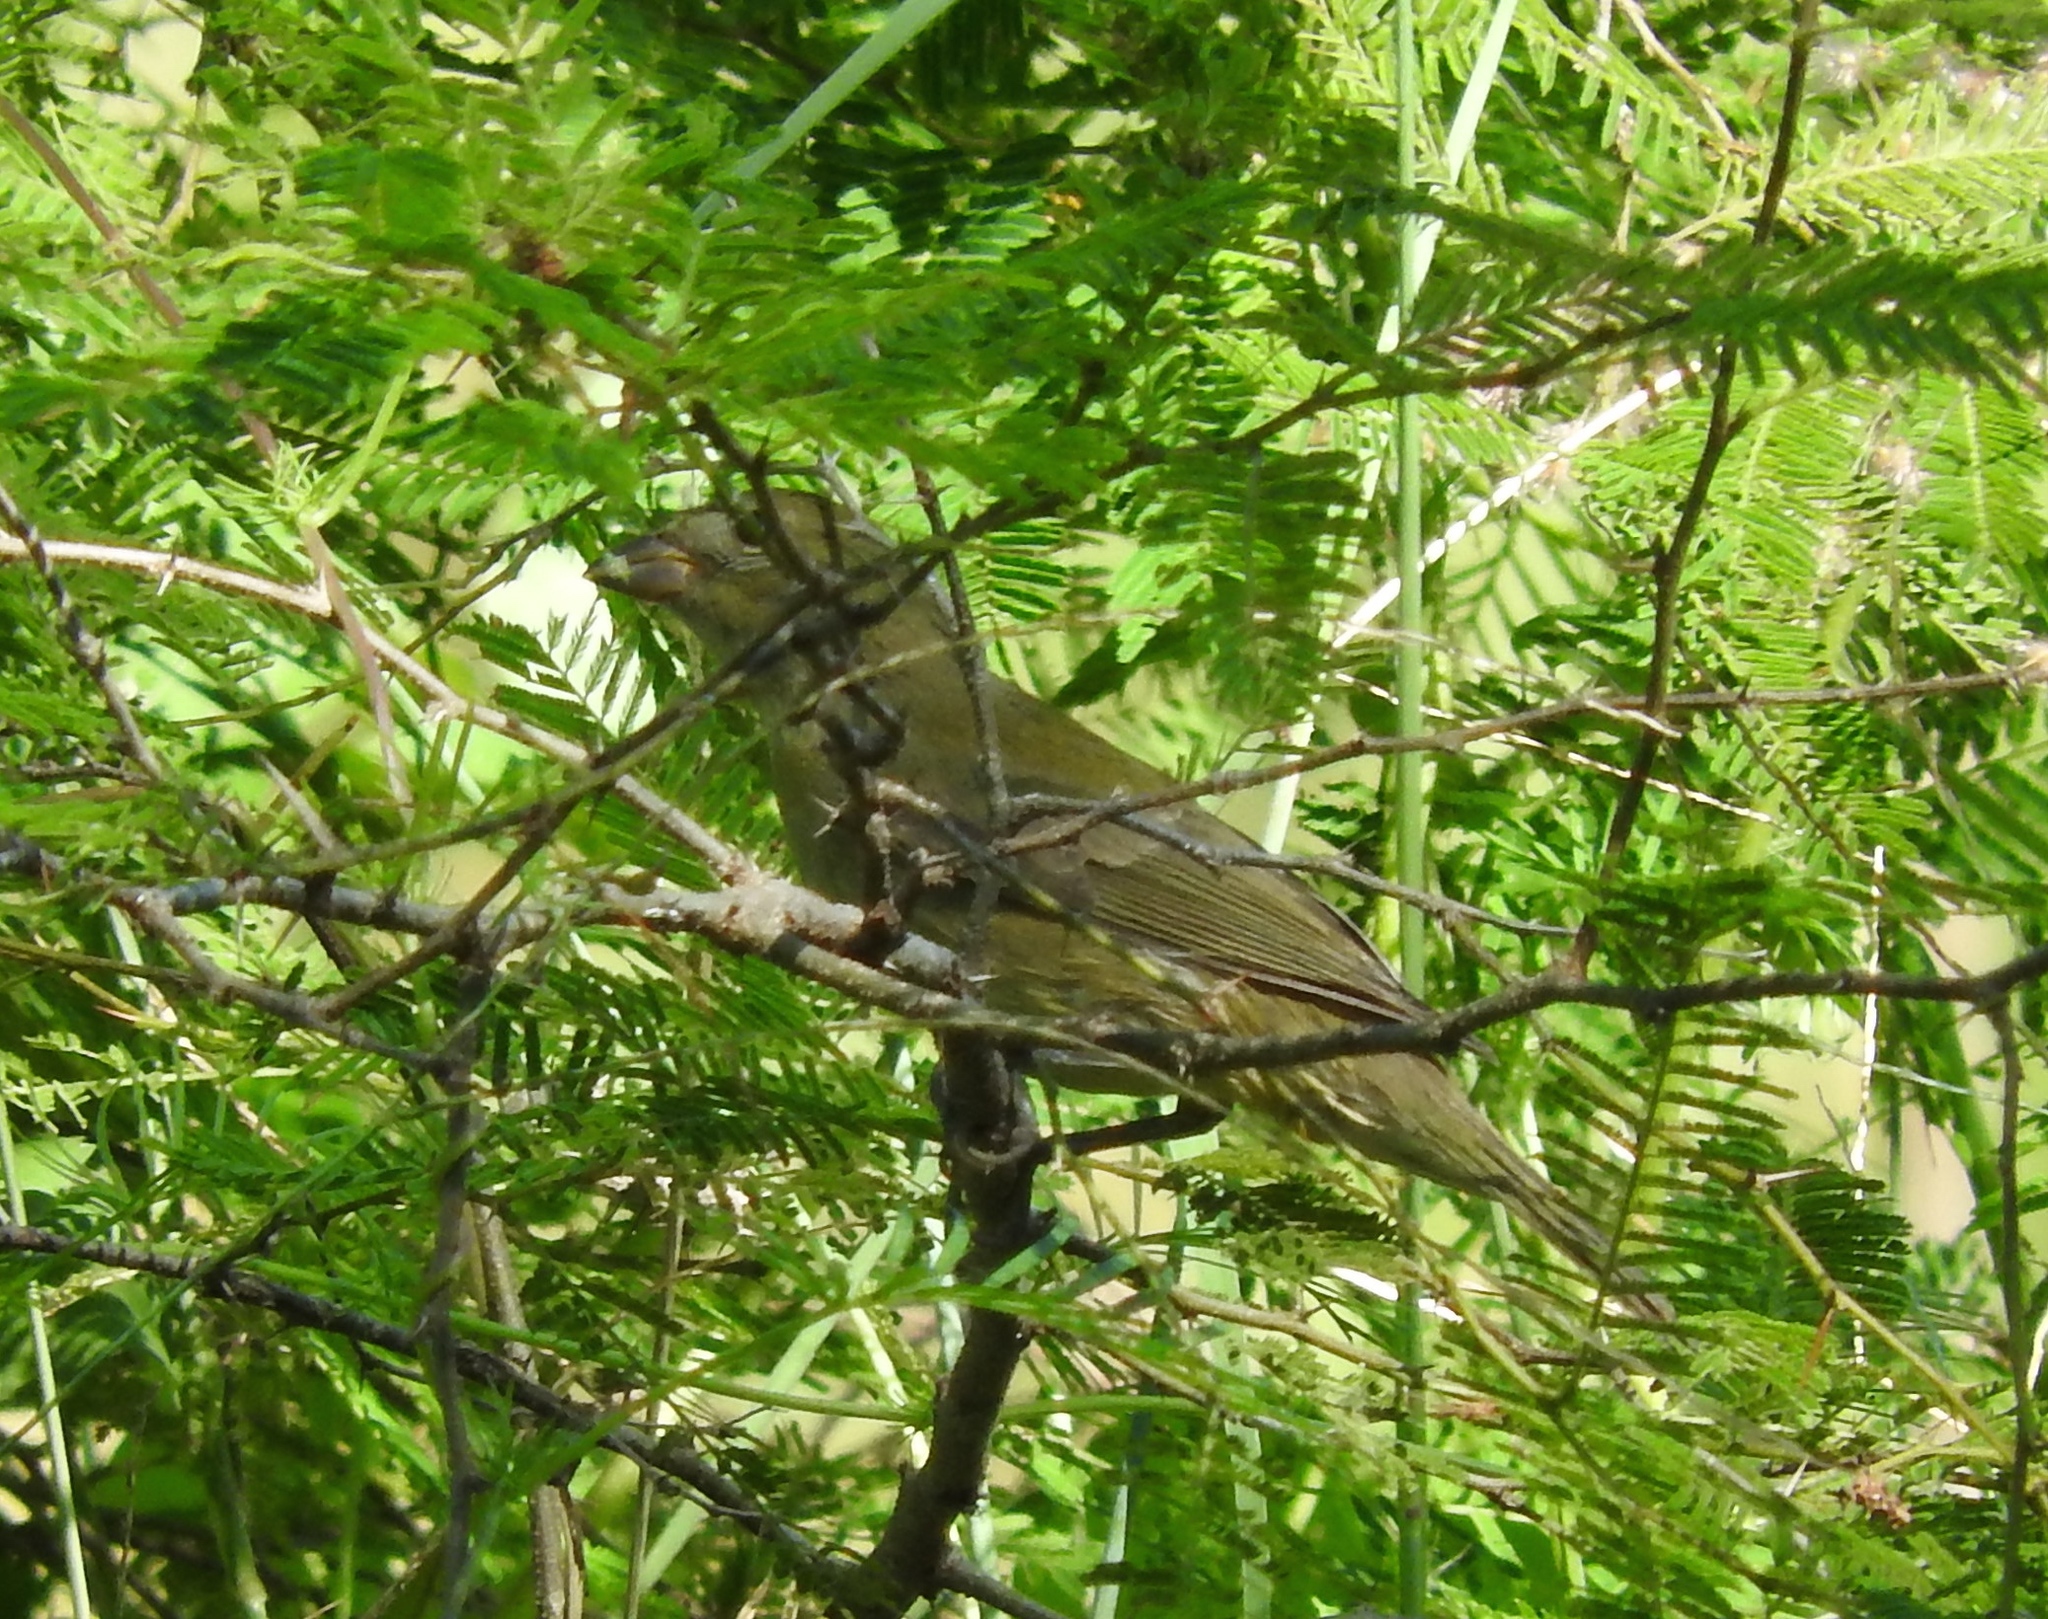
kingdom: Animalia
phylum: Chordata
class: Aves
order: Passeriformes
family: Cardinalidae
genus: Piranga
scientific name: Piranga rubra
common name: Summer tanager
